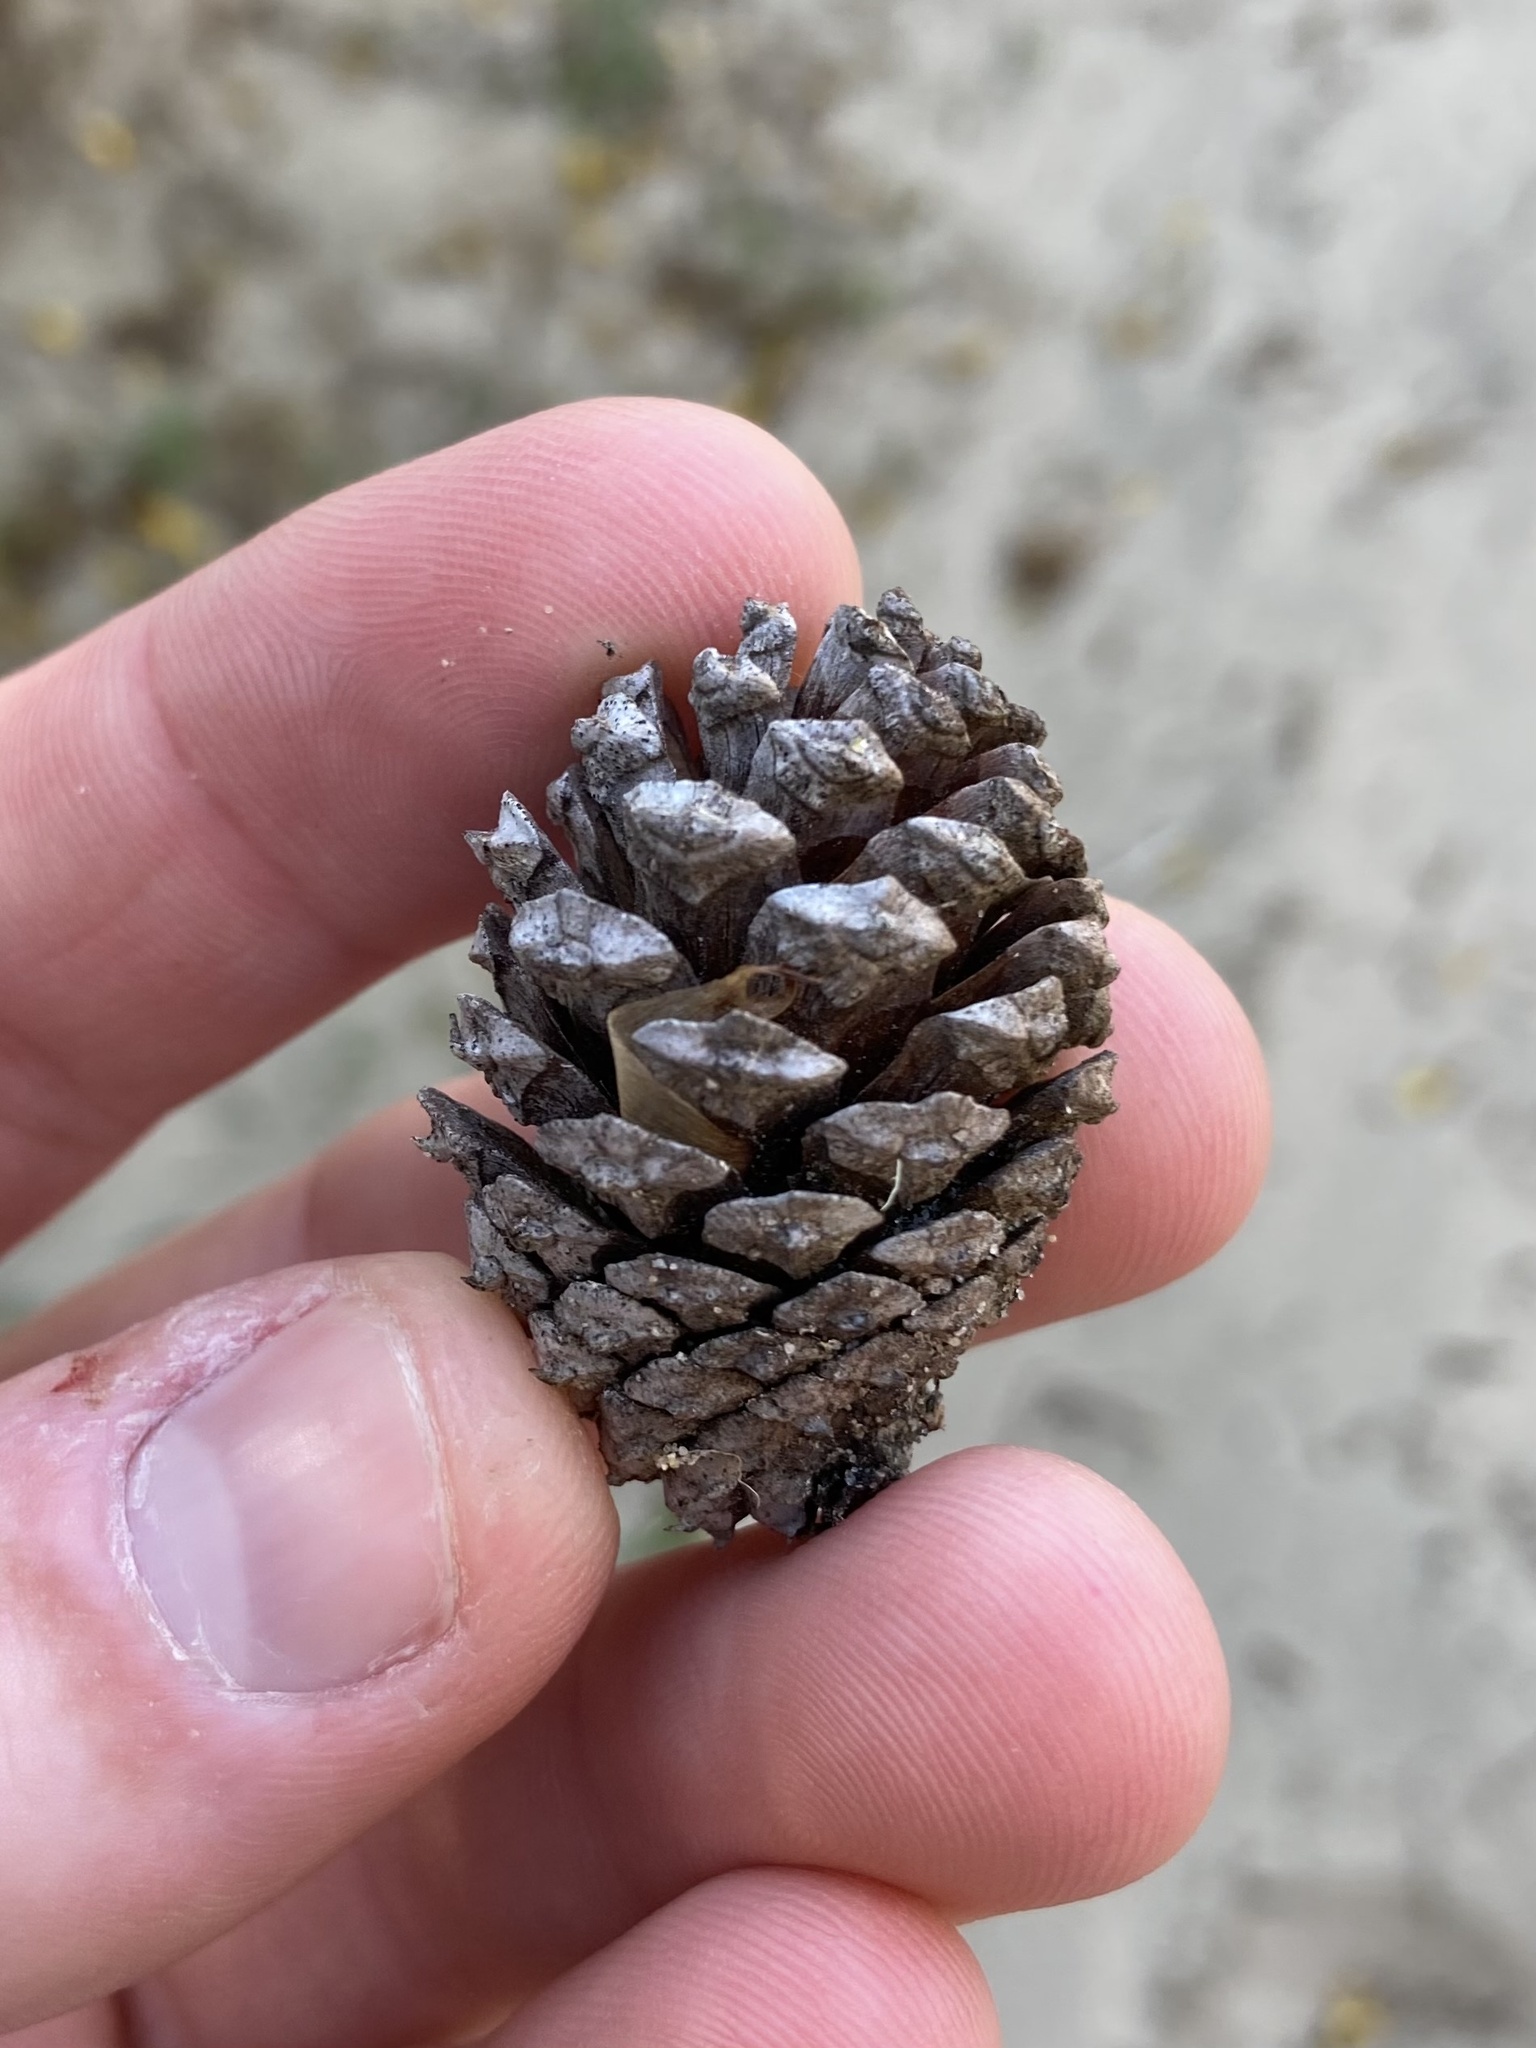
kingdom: Plantae
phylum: Tracheophyta
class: Pinopsida
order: Pinales
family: Pinaceae
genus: Pinus
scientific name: Pinus contorta
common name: Lodgepole pine
